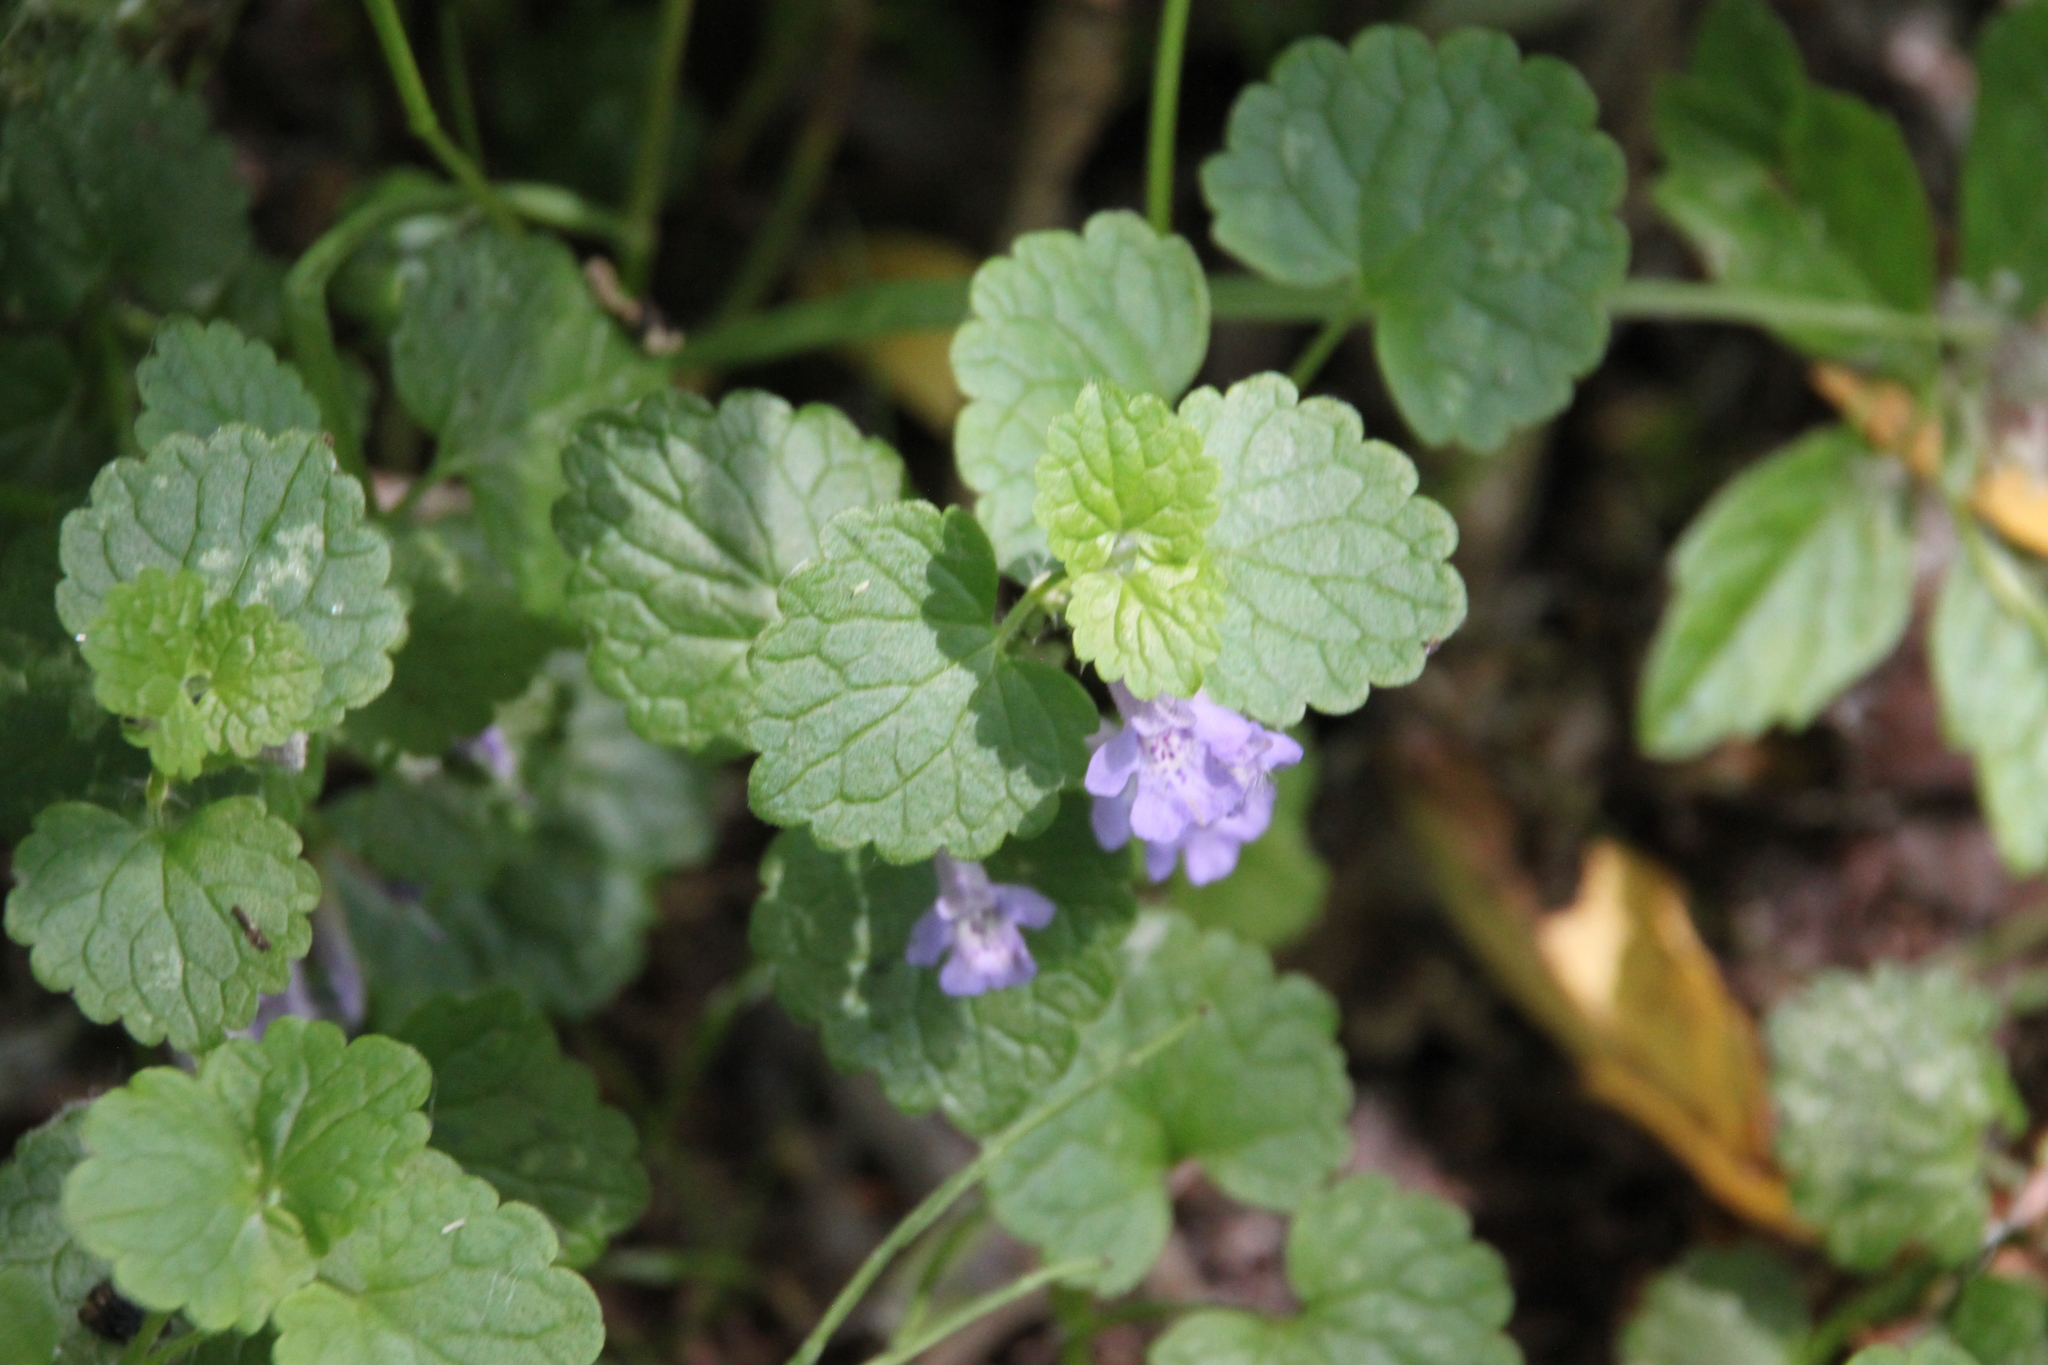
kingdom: Plantae
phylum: Tracheophyta
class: Magnoliopsida
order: Lamiales
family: Lamiaceae
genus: Glechoma
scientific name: Glechoma hederacea
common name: Ground ivy
